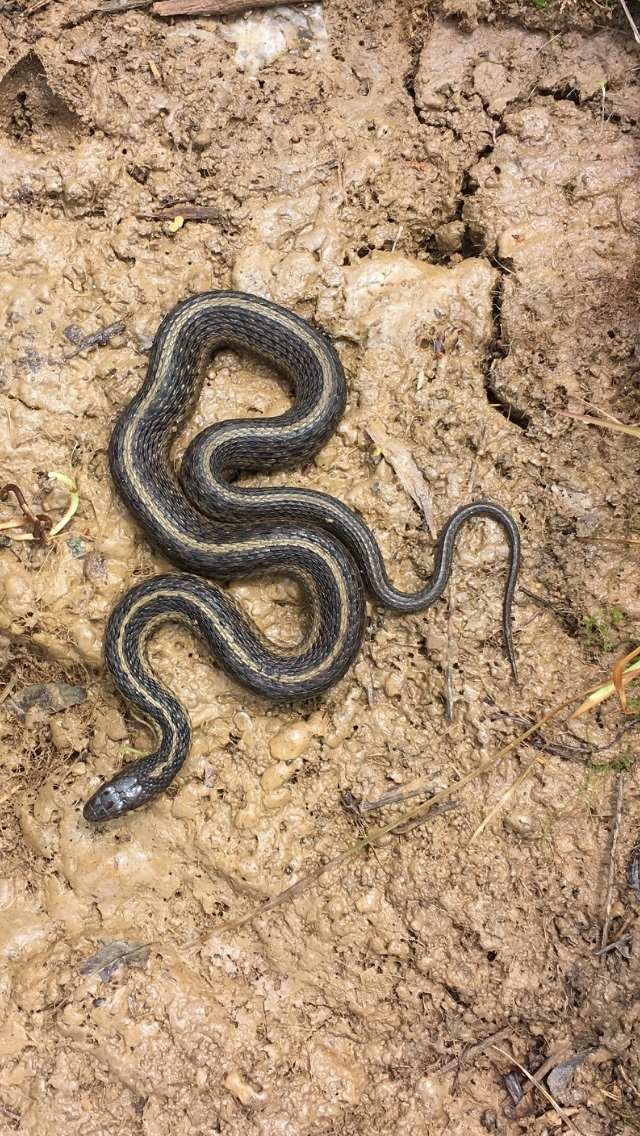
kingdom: Animalia
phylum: Chordata
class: Squamata
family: Colubridae
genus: Thamnophis
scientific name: Thamnophis sirtalis
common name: Common garter snake
